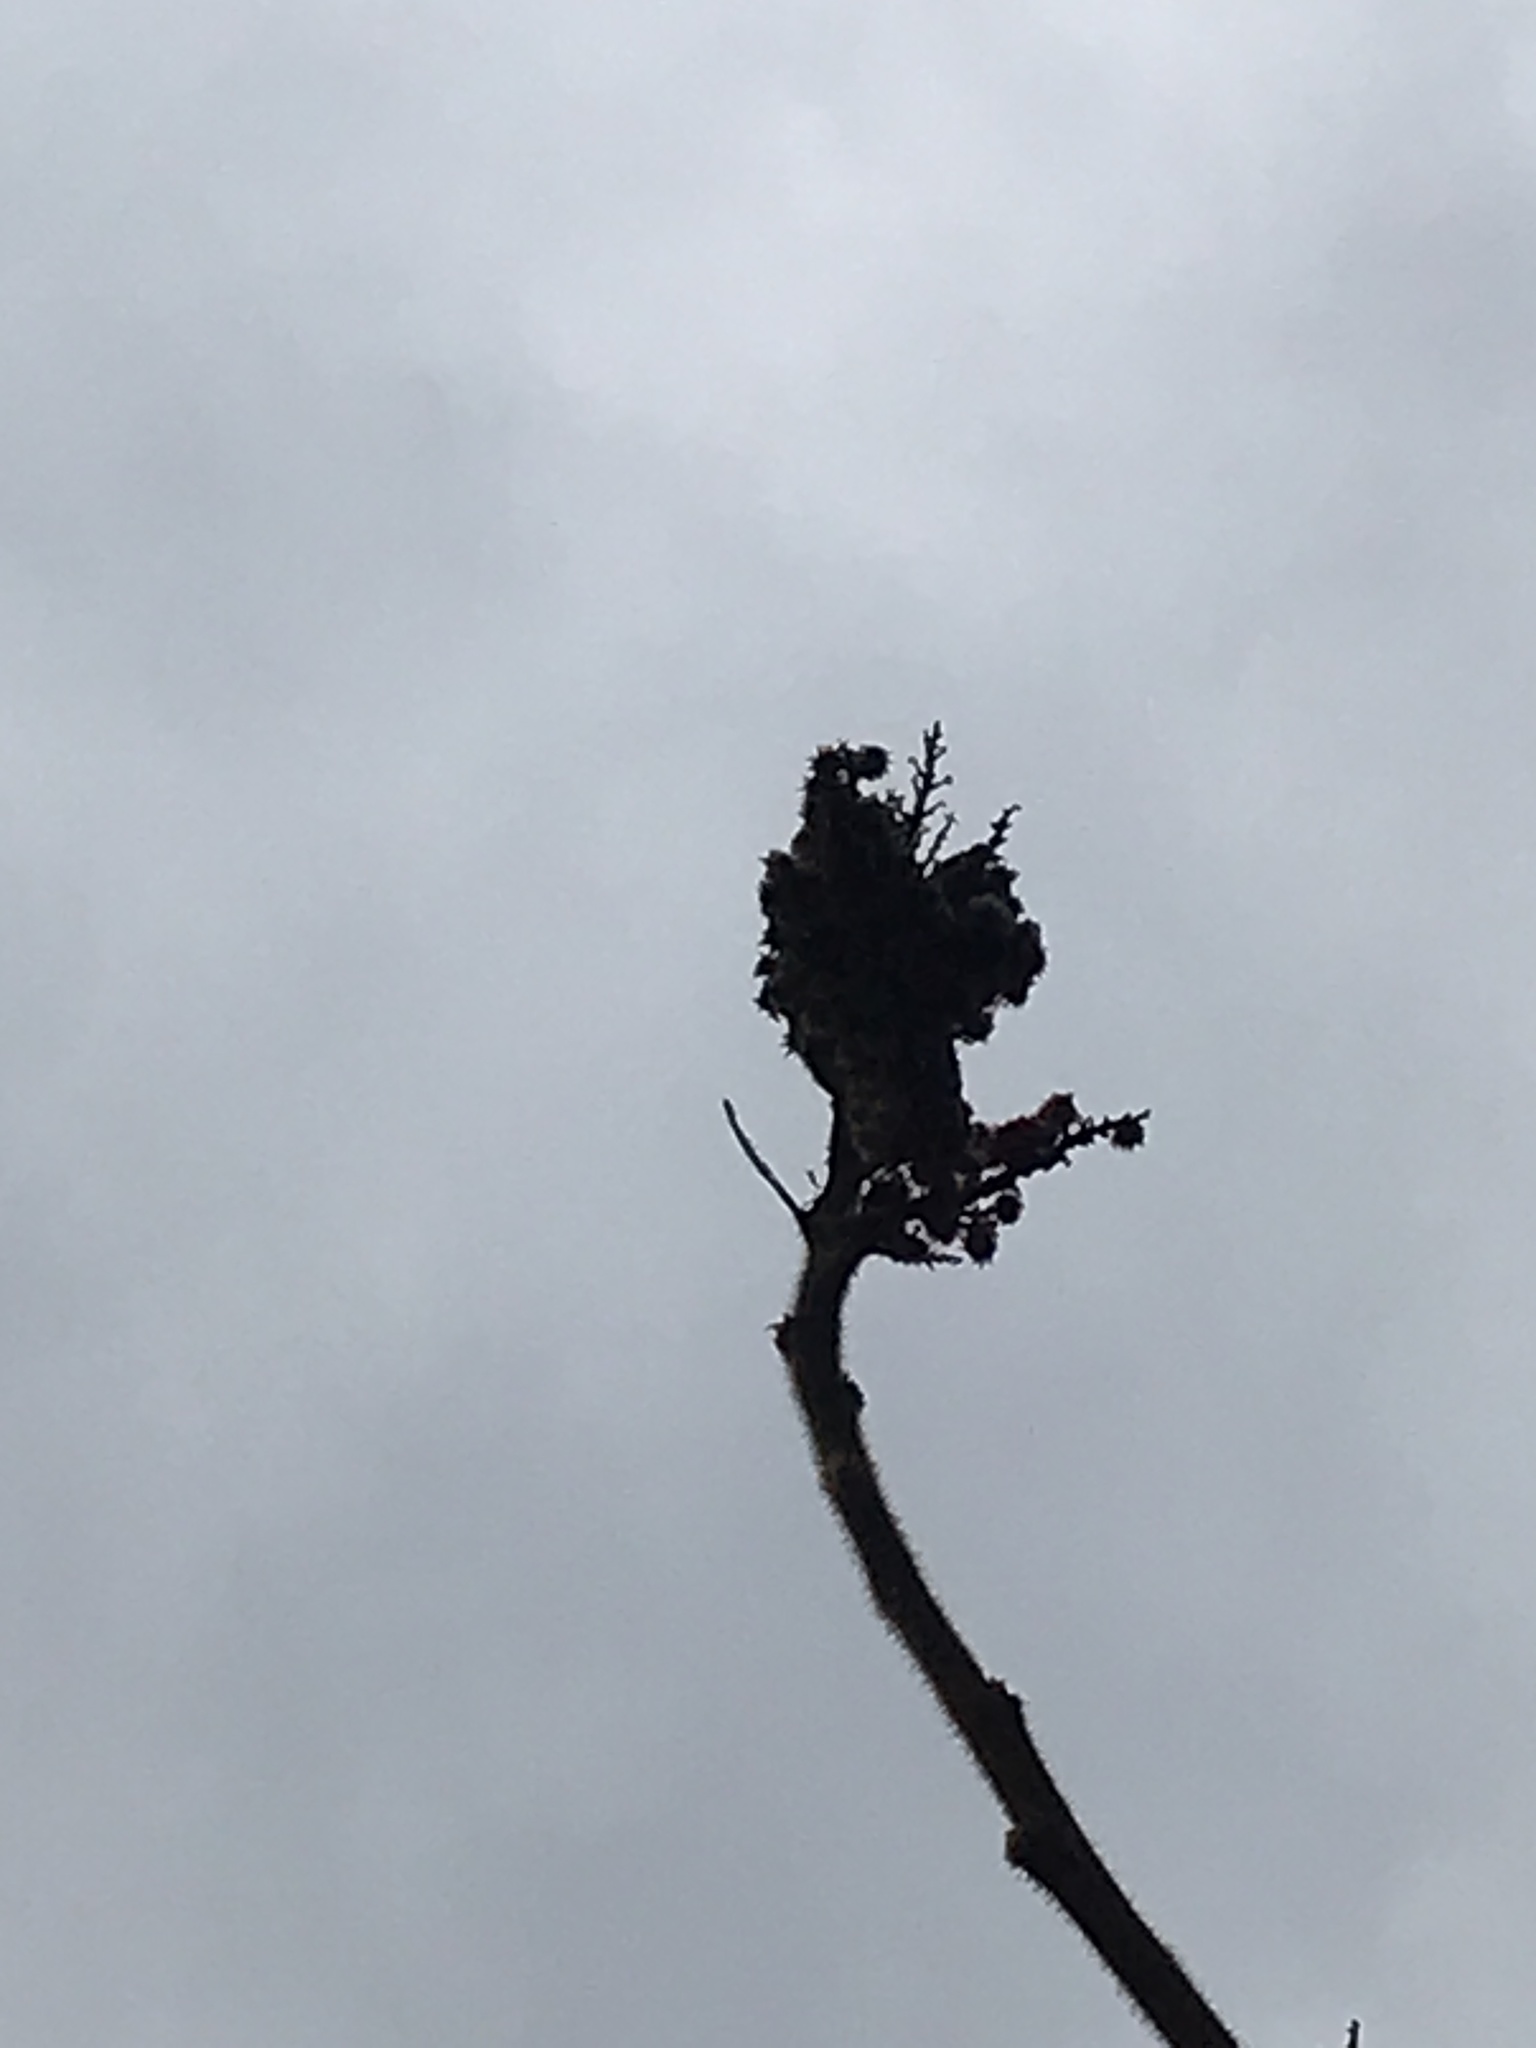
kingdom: Plantae
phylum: Tracheophyta
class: Magnoliopsida
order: Sapindales
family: Anacardiaceae
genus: Rhus
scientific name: Rhus typhina
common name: Staghorn sumac
